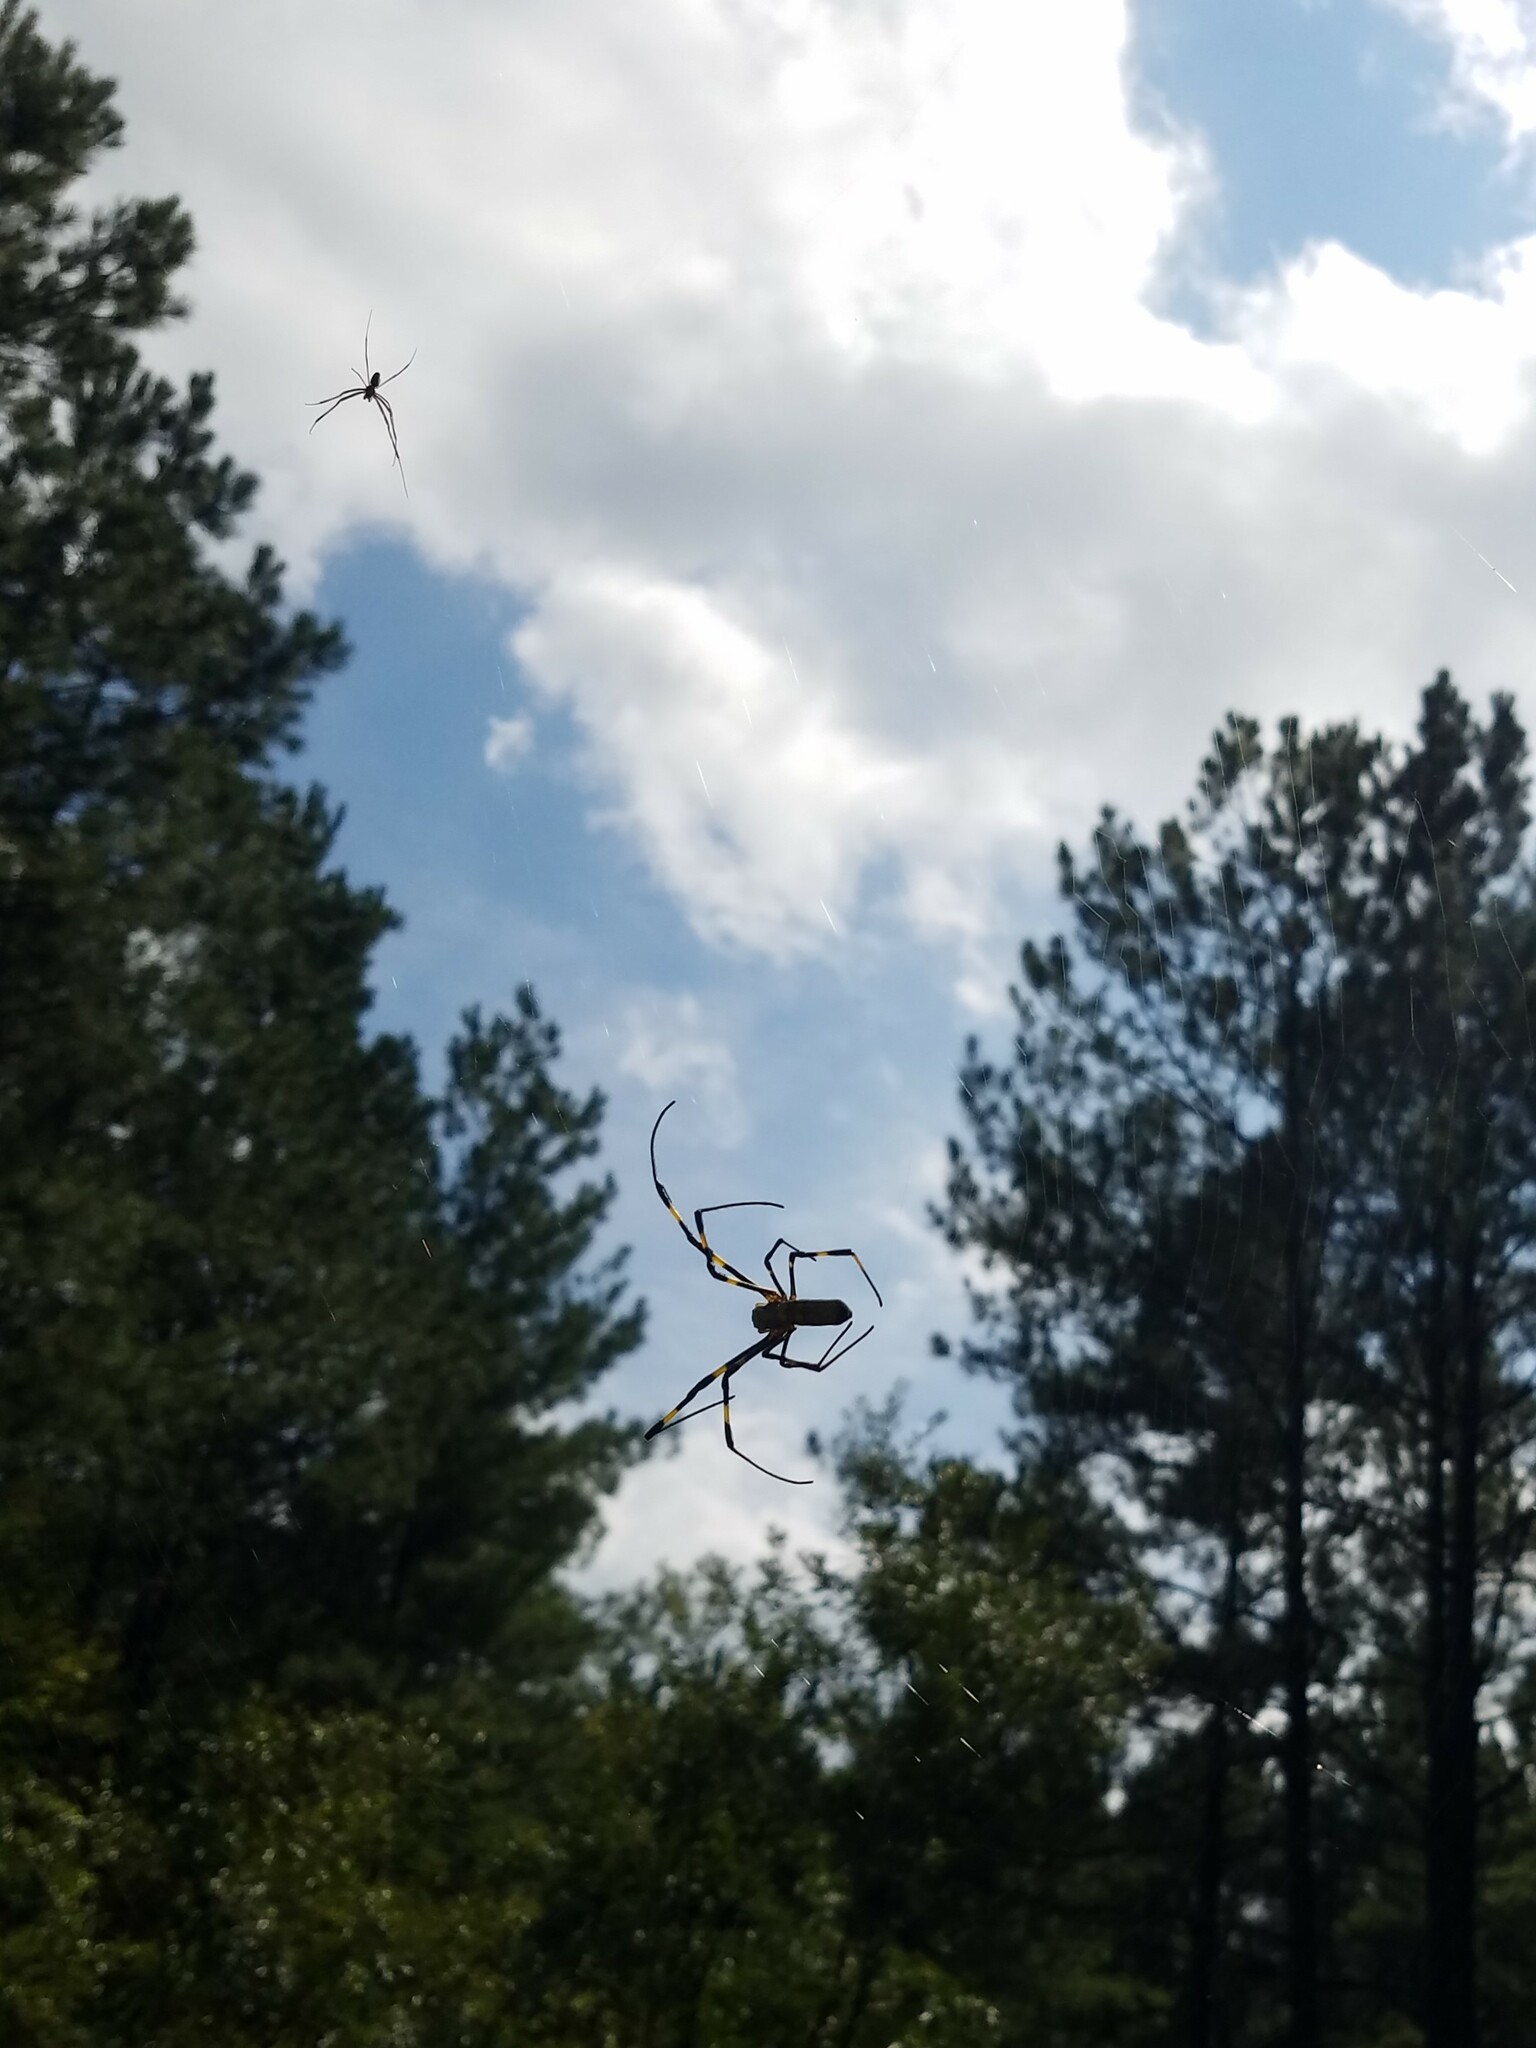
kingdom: Animalia
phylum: Arthropoda
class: Arachnida
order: Araneae
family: Araneidae
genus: Trichonephila
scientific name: Trichonephila clavata
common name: Jorō spider
